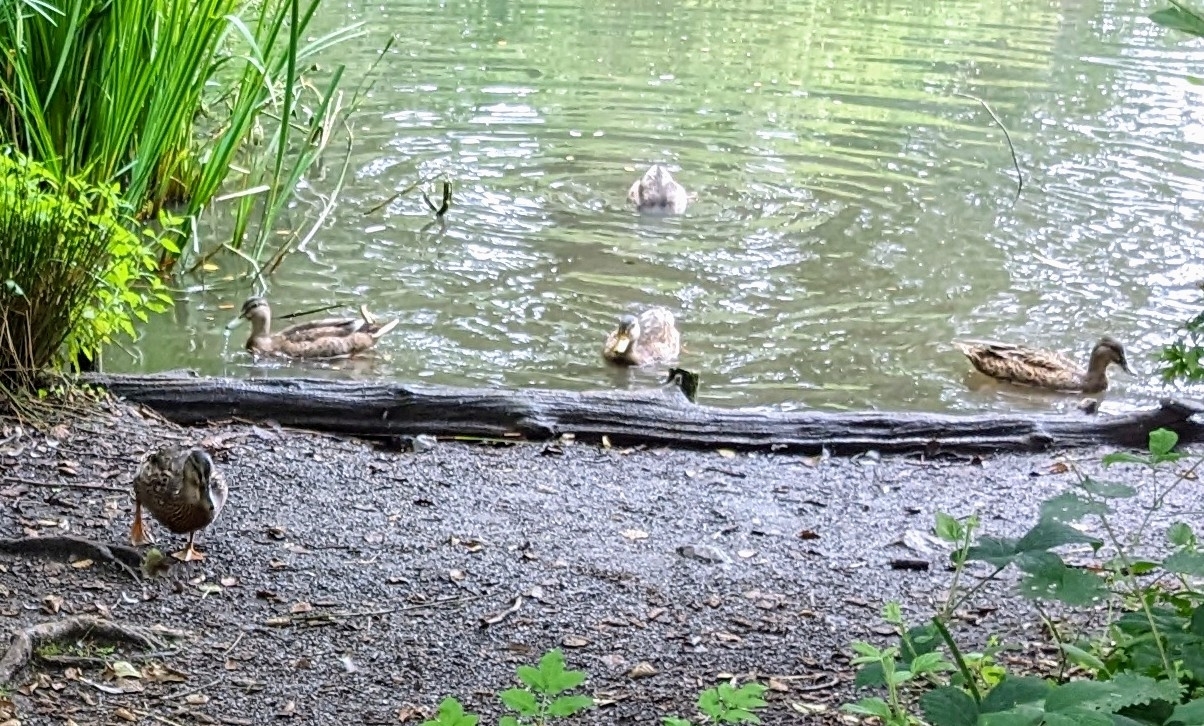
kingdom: Animalia
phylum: Chordata
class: Aves
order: Anseriformes
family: Anatidae
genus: Anas
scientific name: Anas platyrhynchos
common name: Mallard
